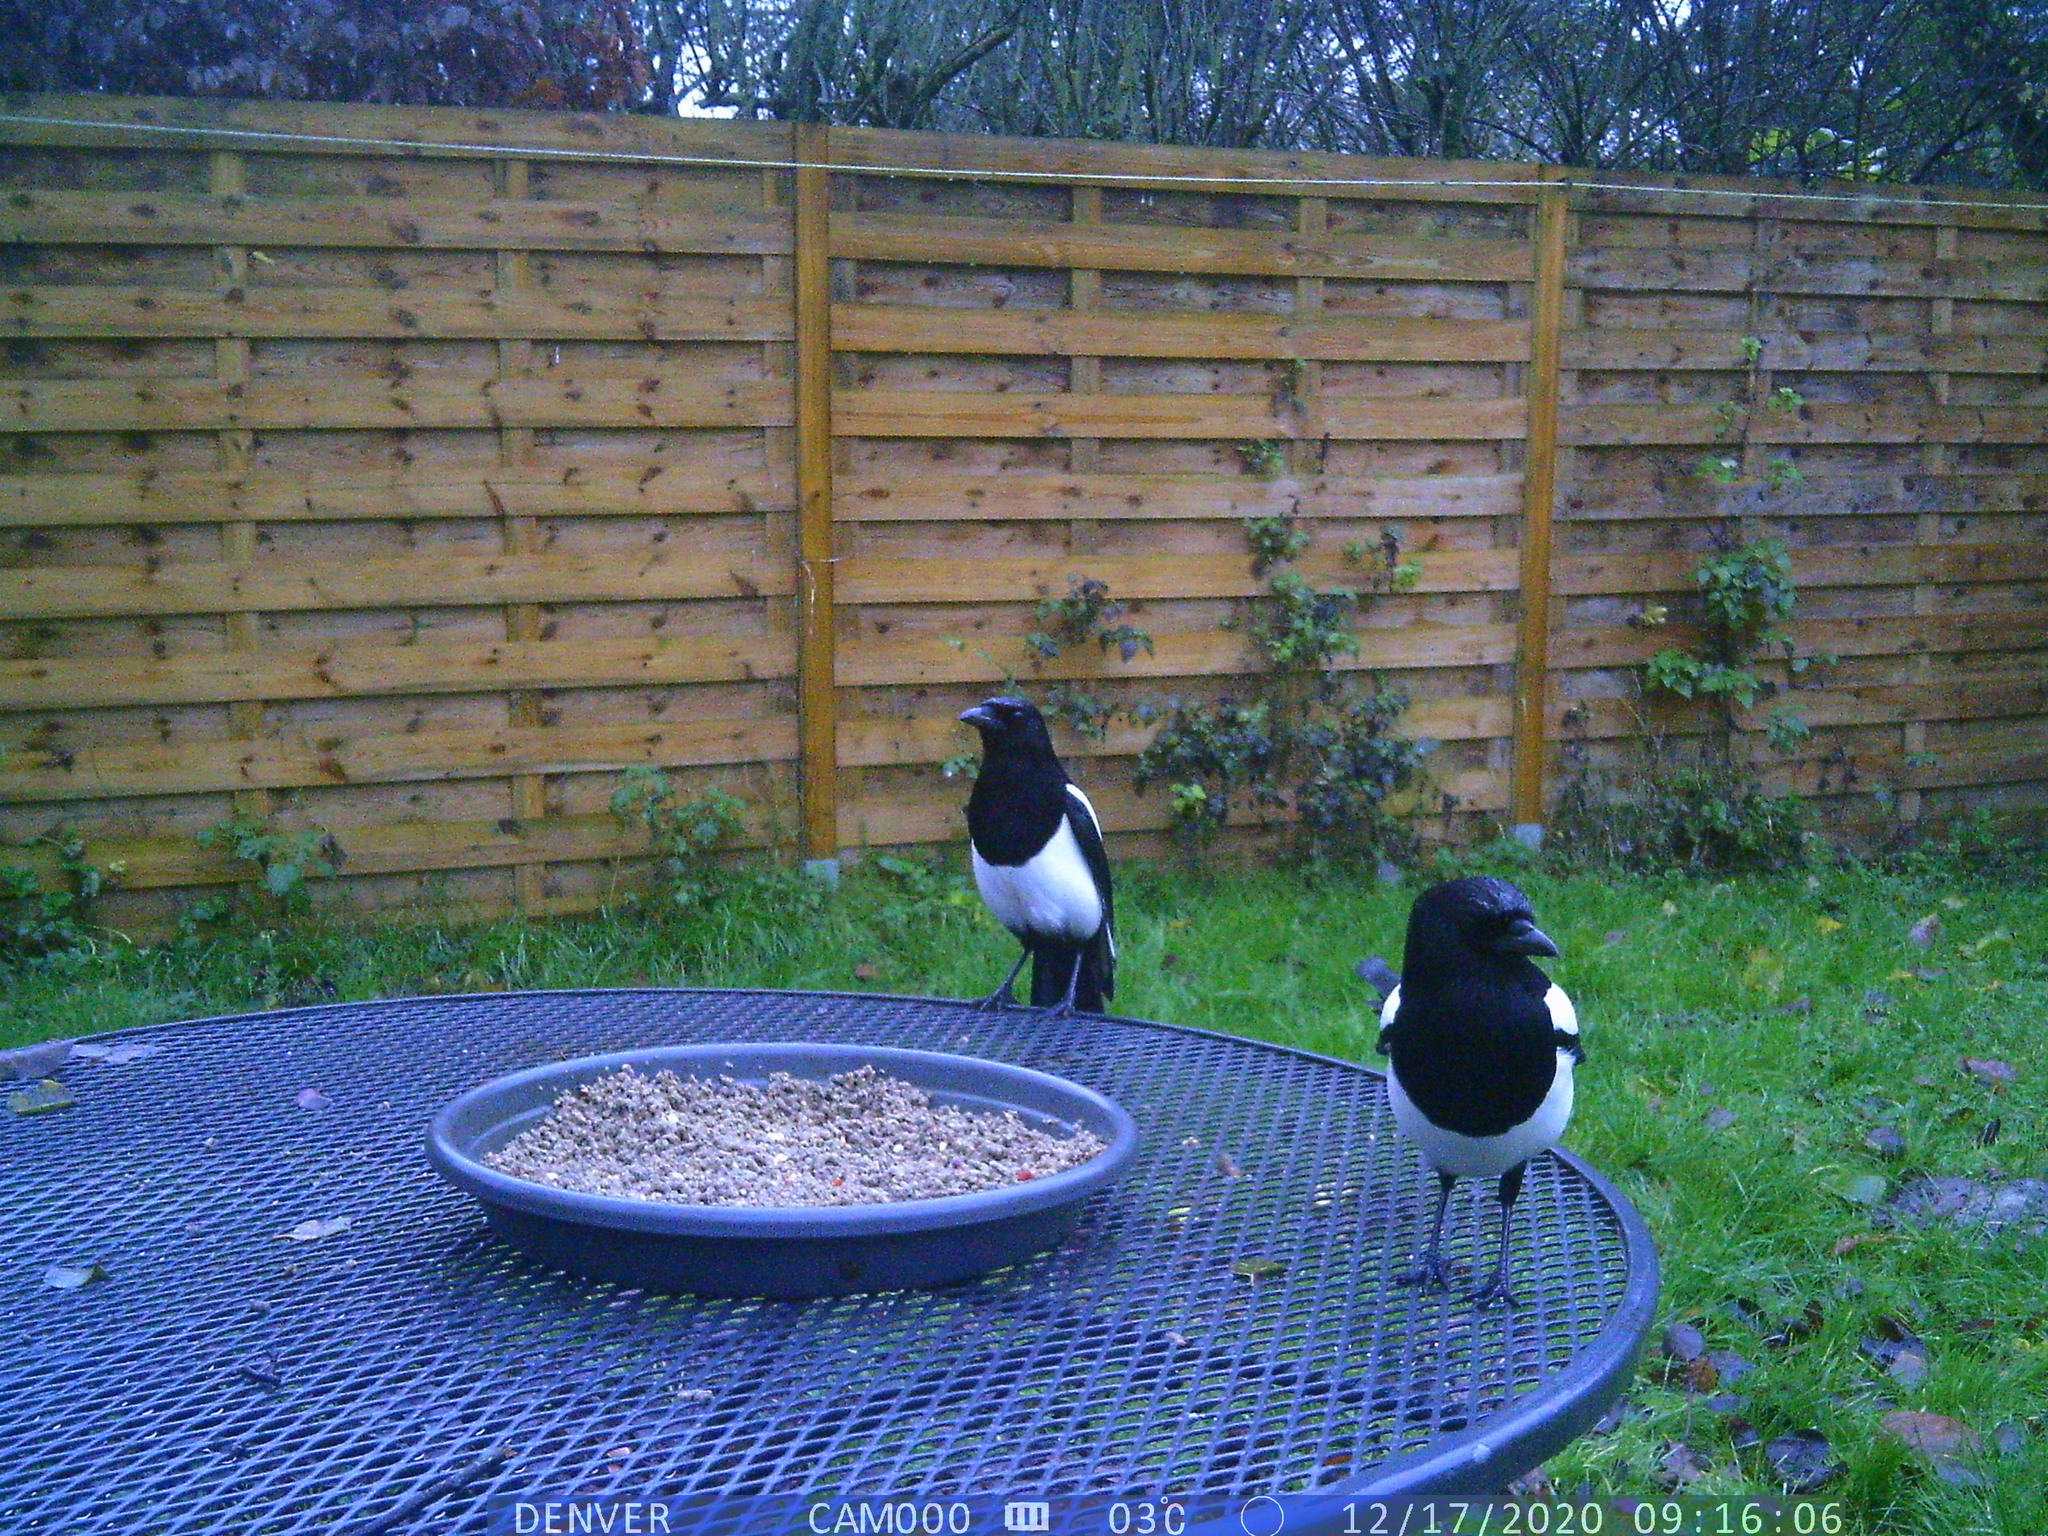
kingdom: Animalia
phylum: Chordata
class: Aves
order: Passeriformes
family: Corvidae
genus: Pica
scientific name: Pica pica
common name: Eurasian magpie
